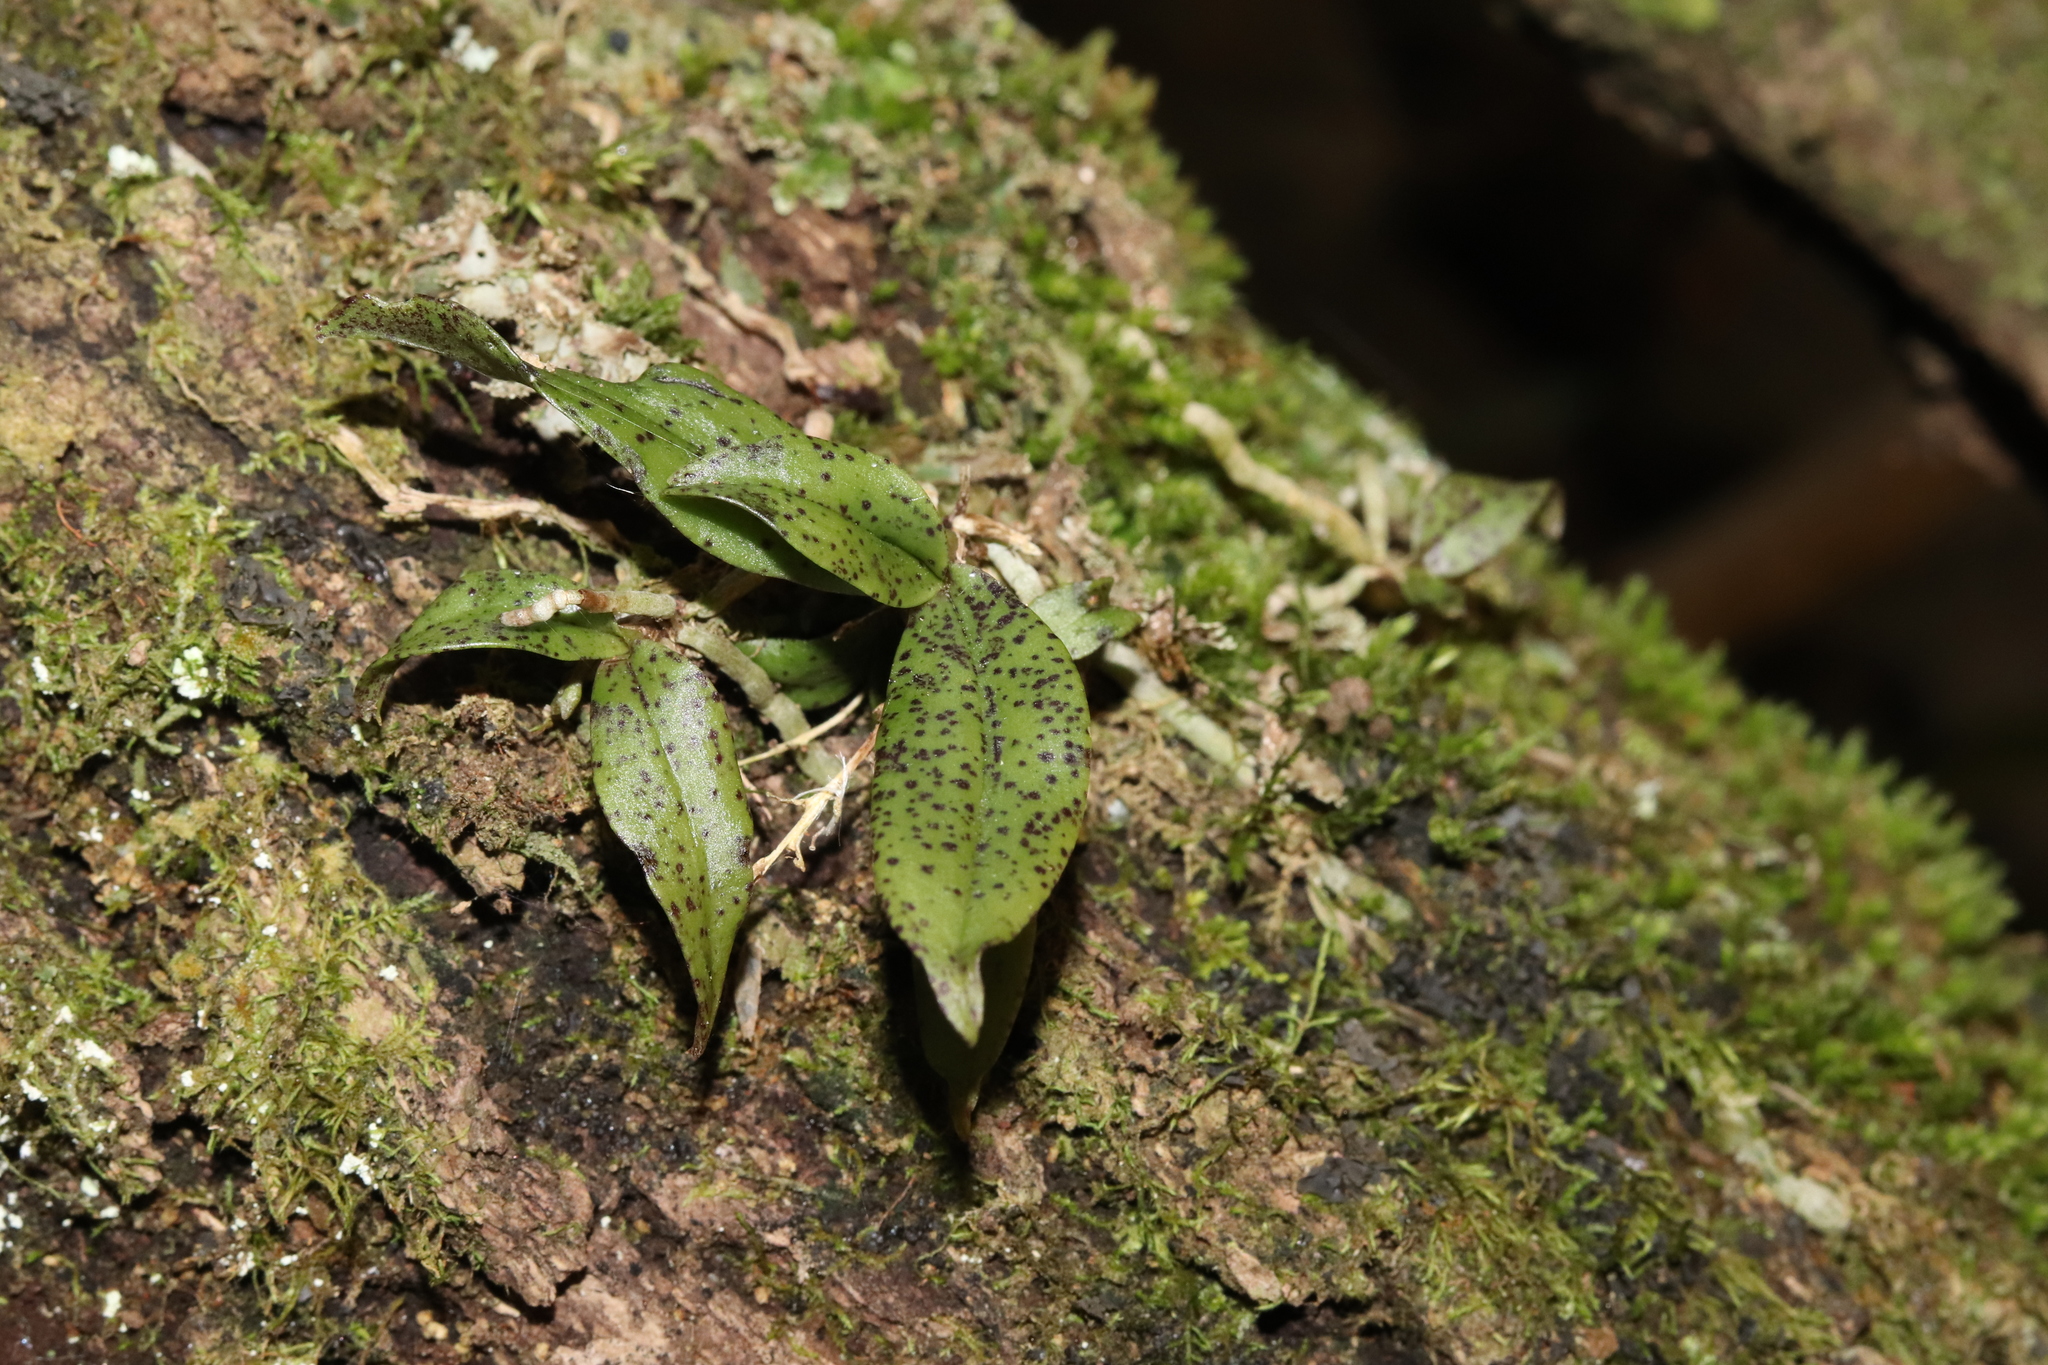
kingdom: Plantae
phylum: Tracheophyta
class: Liliopsida
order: Asparagales
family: Orchidaceae
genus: Drymoanthus
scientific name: Drymoanthus flavus
